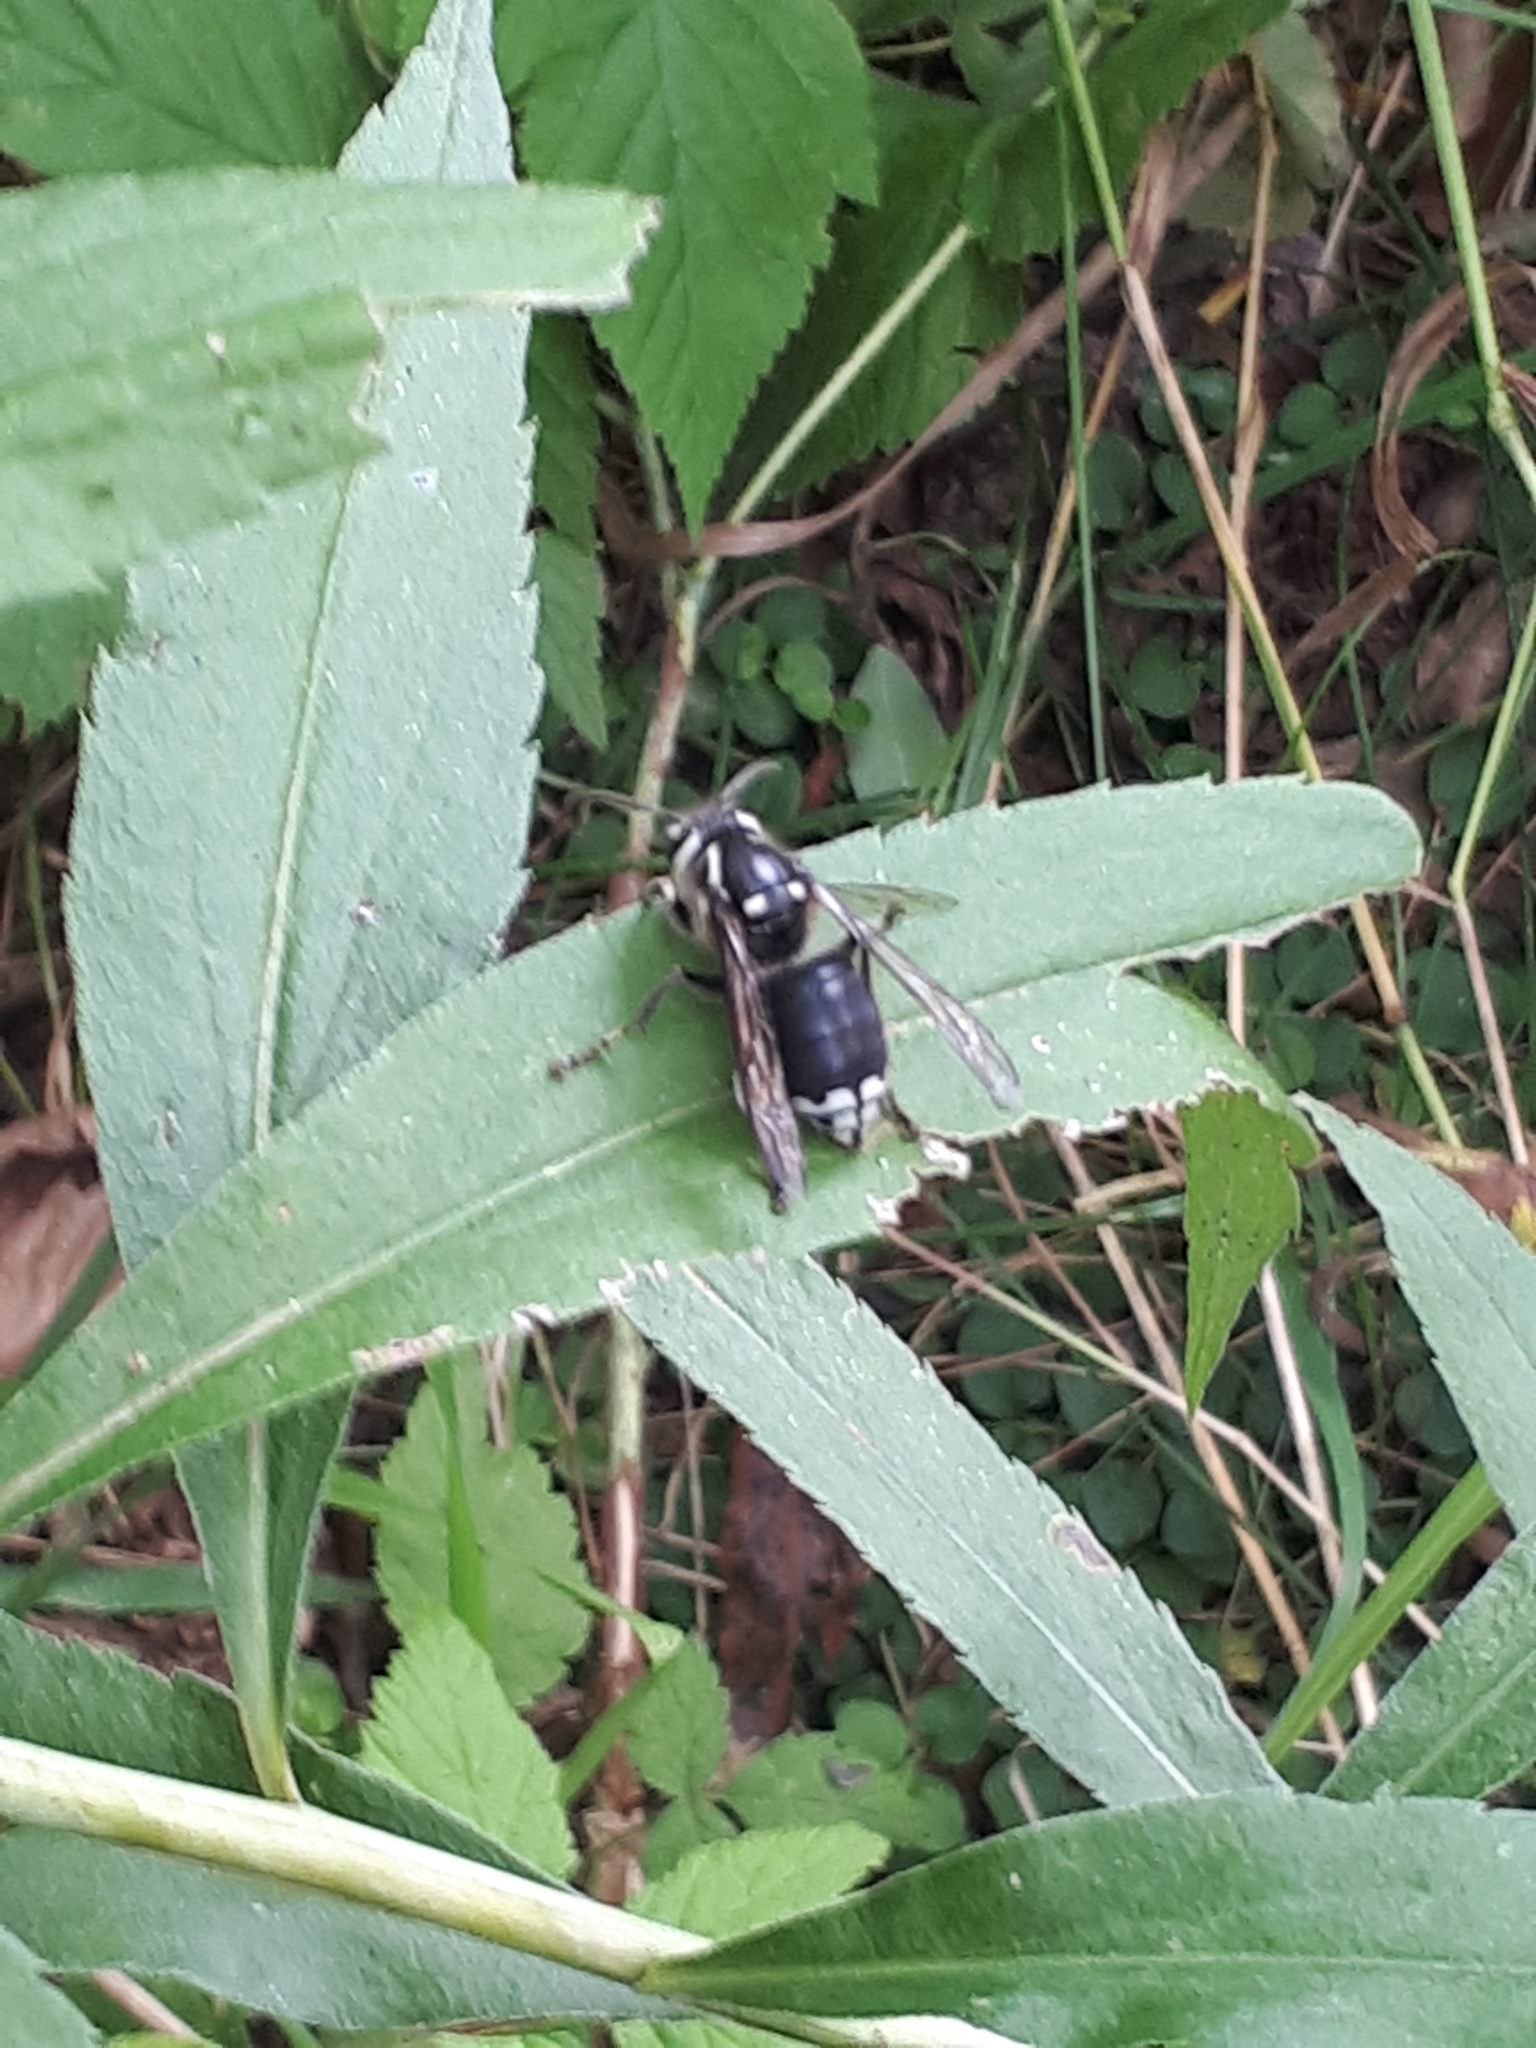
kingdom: Animalia
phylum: Arthropoda
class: Insecta
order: Hymenoptera
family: Vespidae
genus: Dolichovespula
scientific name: Dolichovespula maculata
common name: Bald-faced hornet
